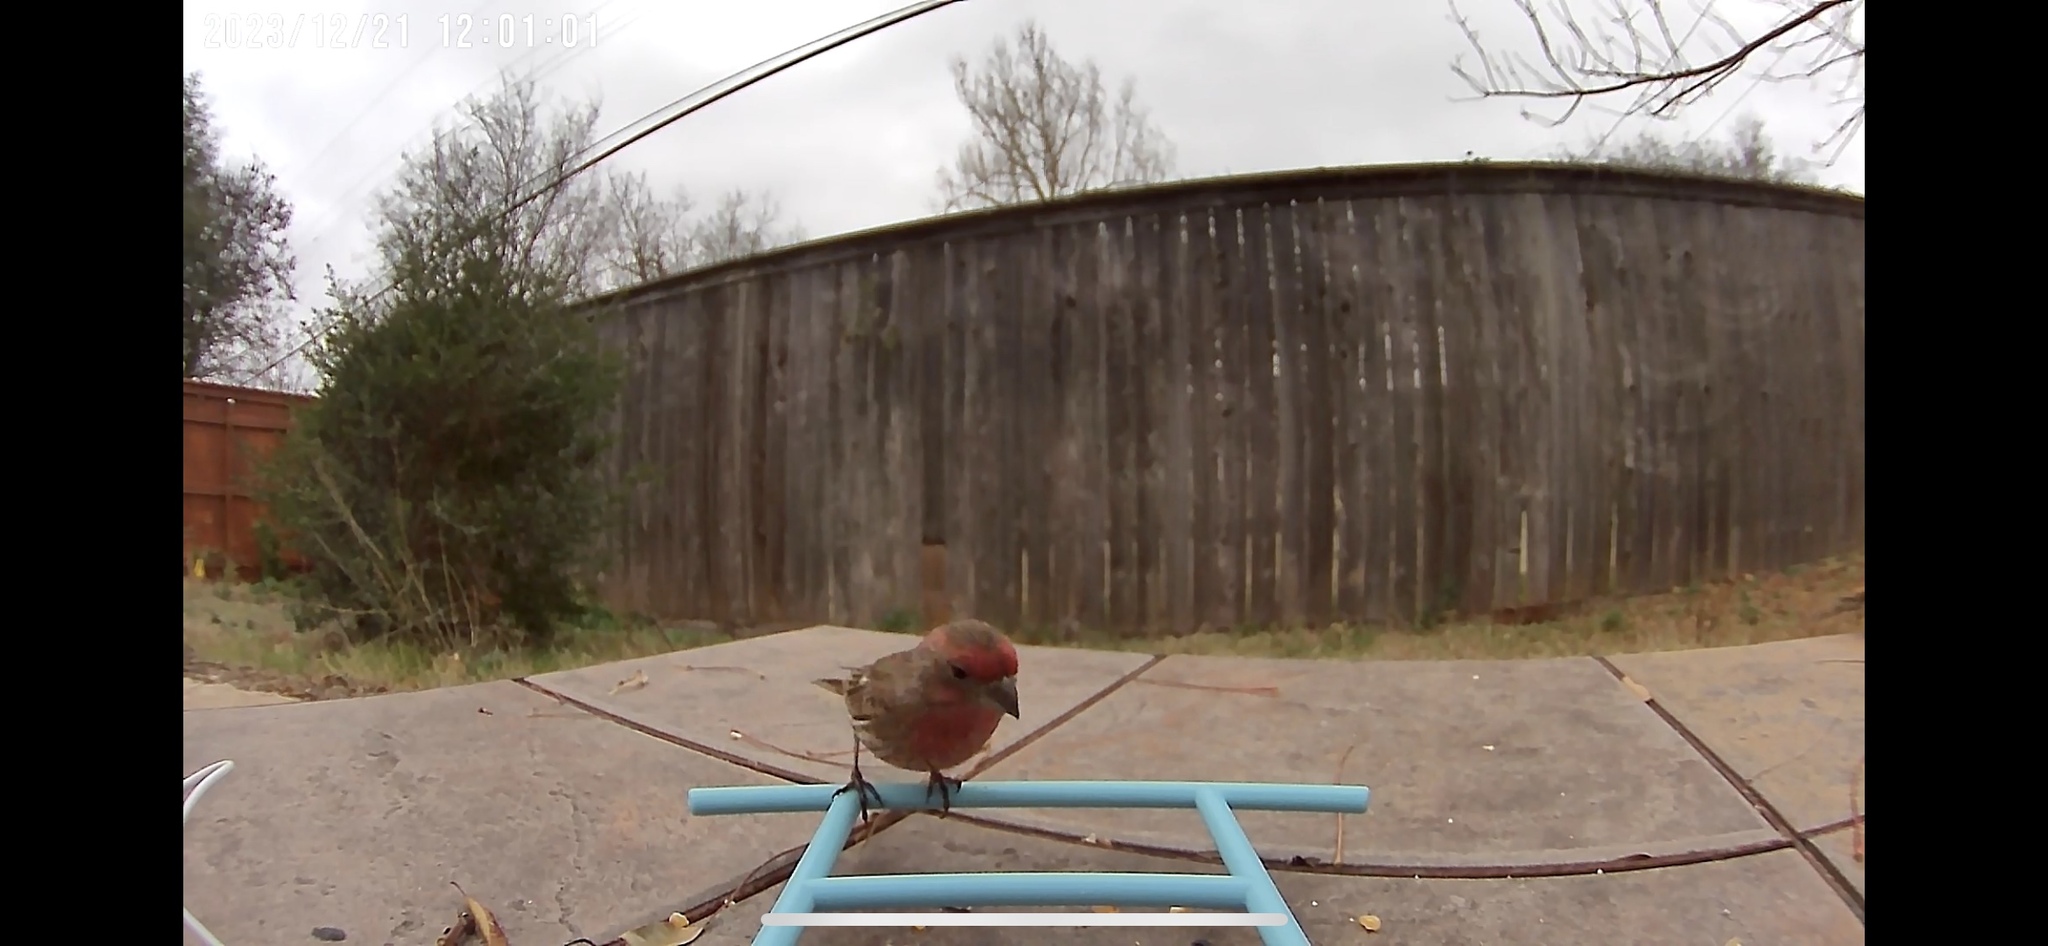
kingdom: Animalia
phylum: Chordata
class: Aves
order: Passeriformes
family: Fringillidae
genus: Haemorhous
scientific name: Haemorhous mexicanus
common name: House finch
